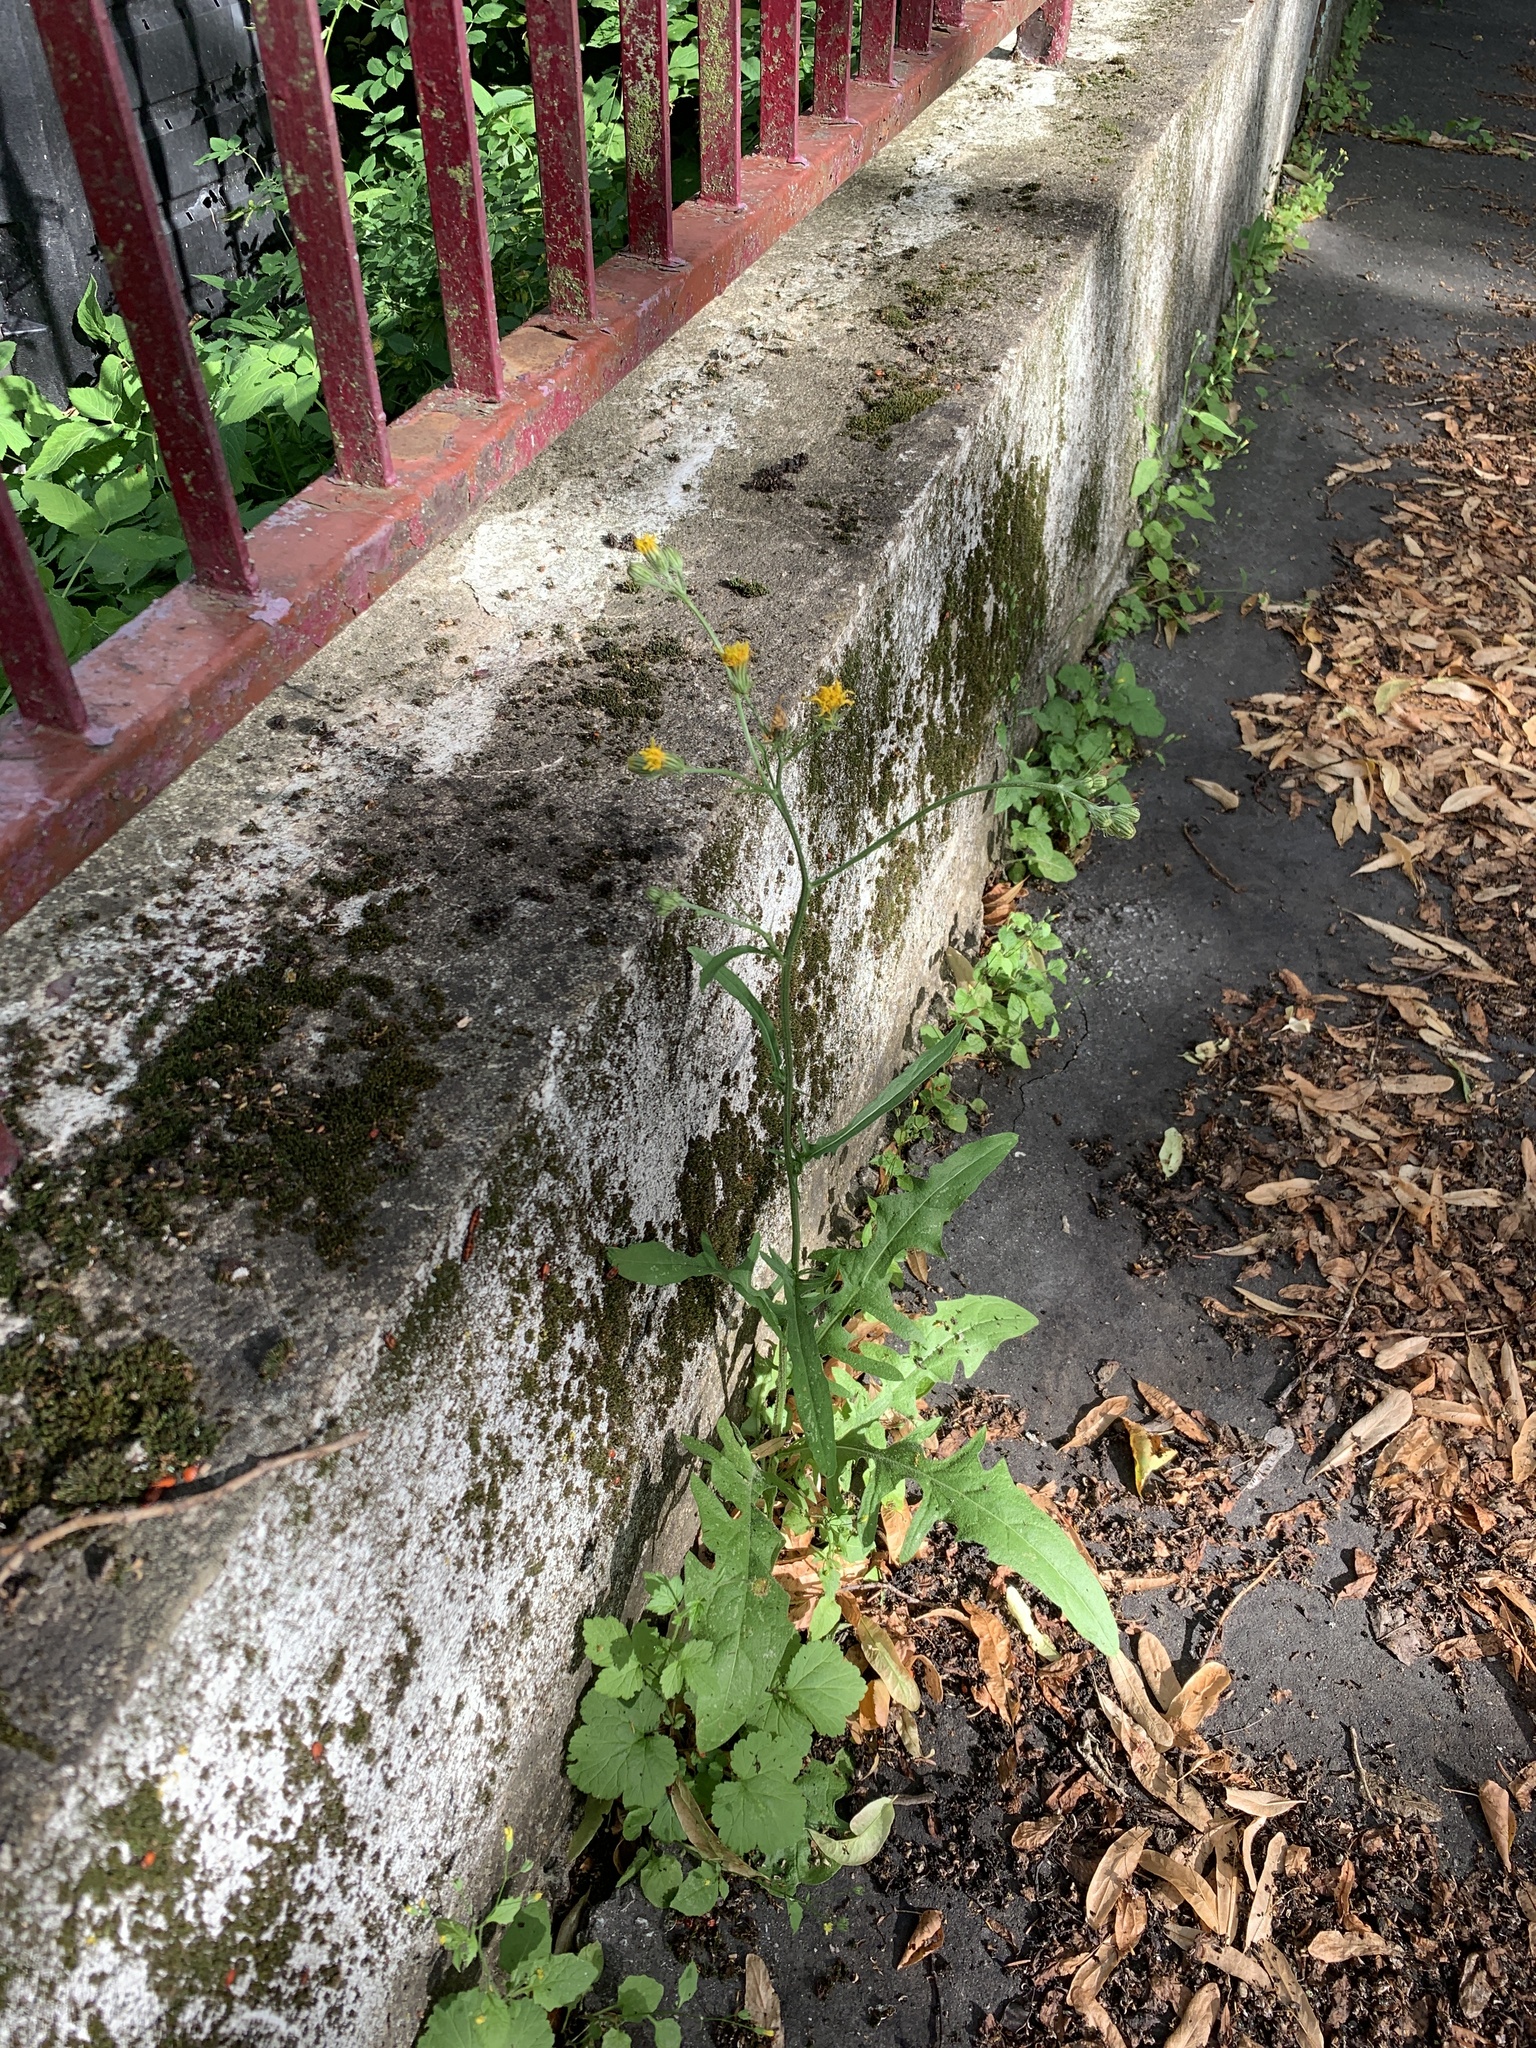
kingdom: Plantae
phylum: Tracheophyta
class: Magnoliopsida
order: Asterales
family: Asteraceae
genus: Crepis
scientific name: Crepis biennis
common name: Rough hawk's-beard
